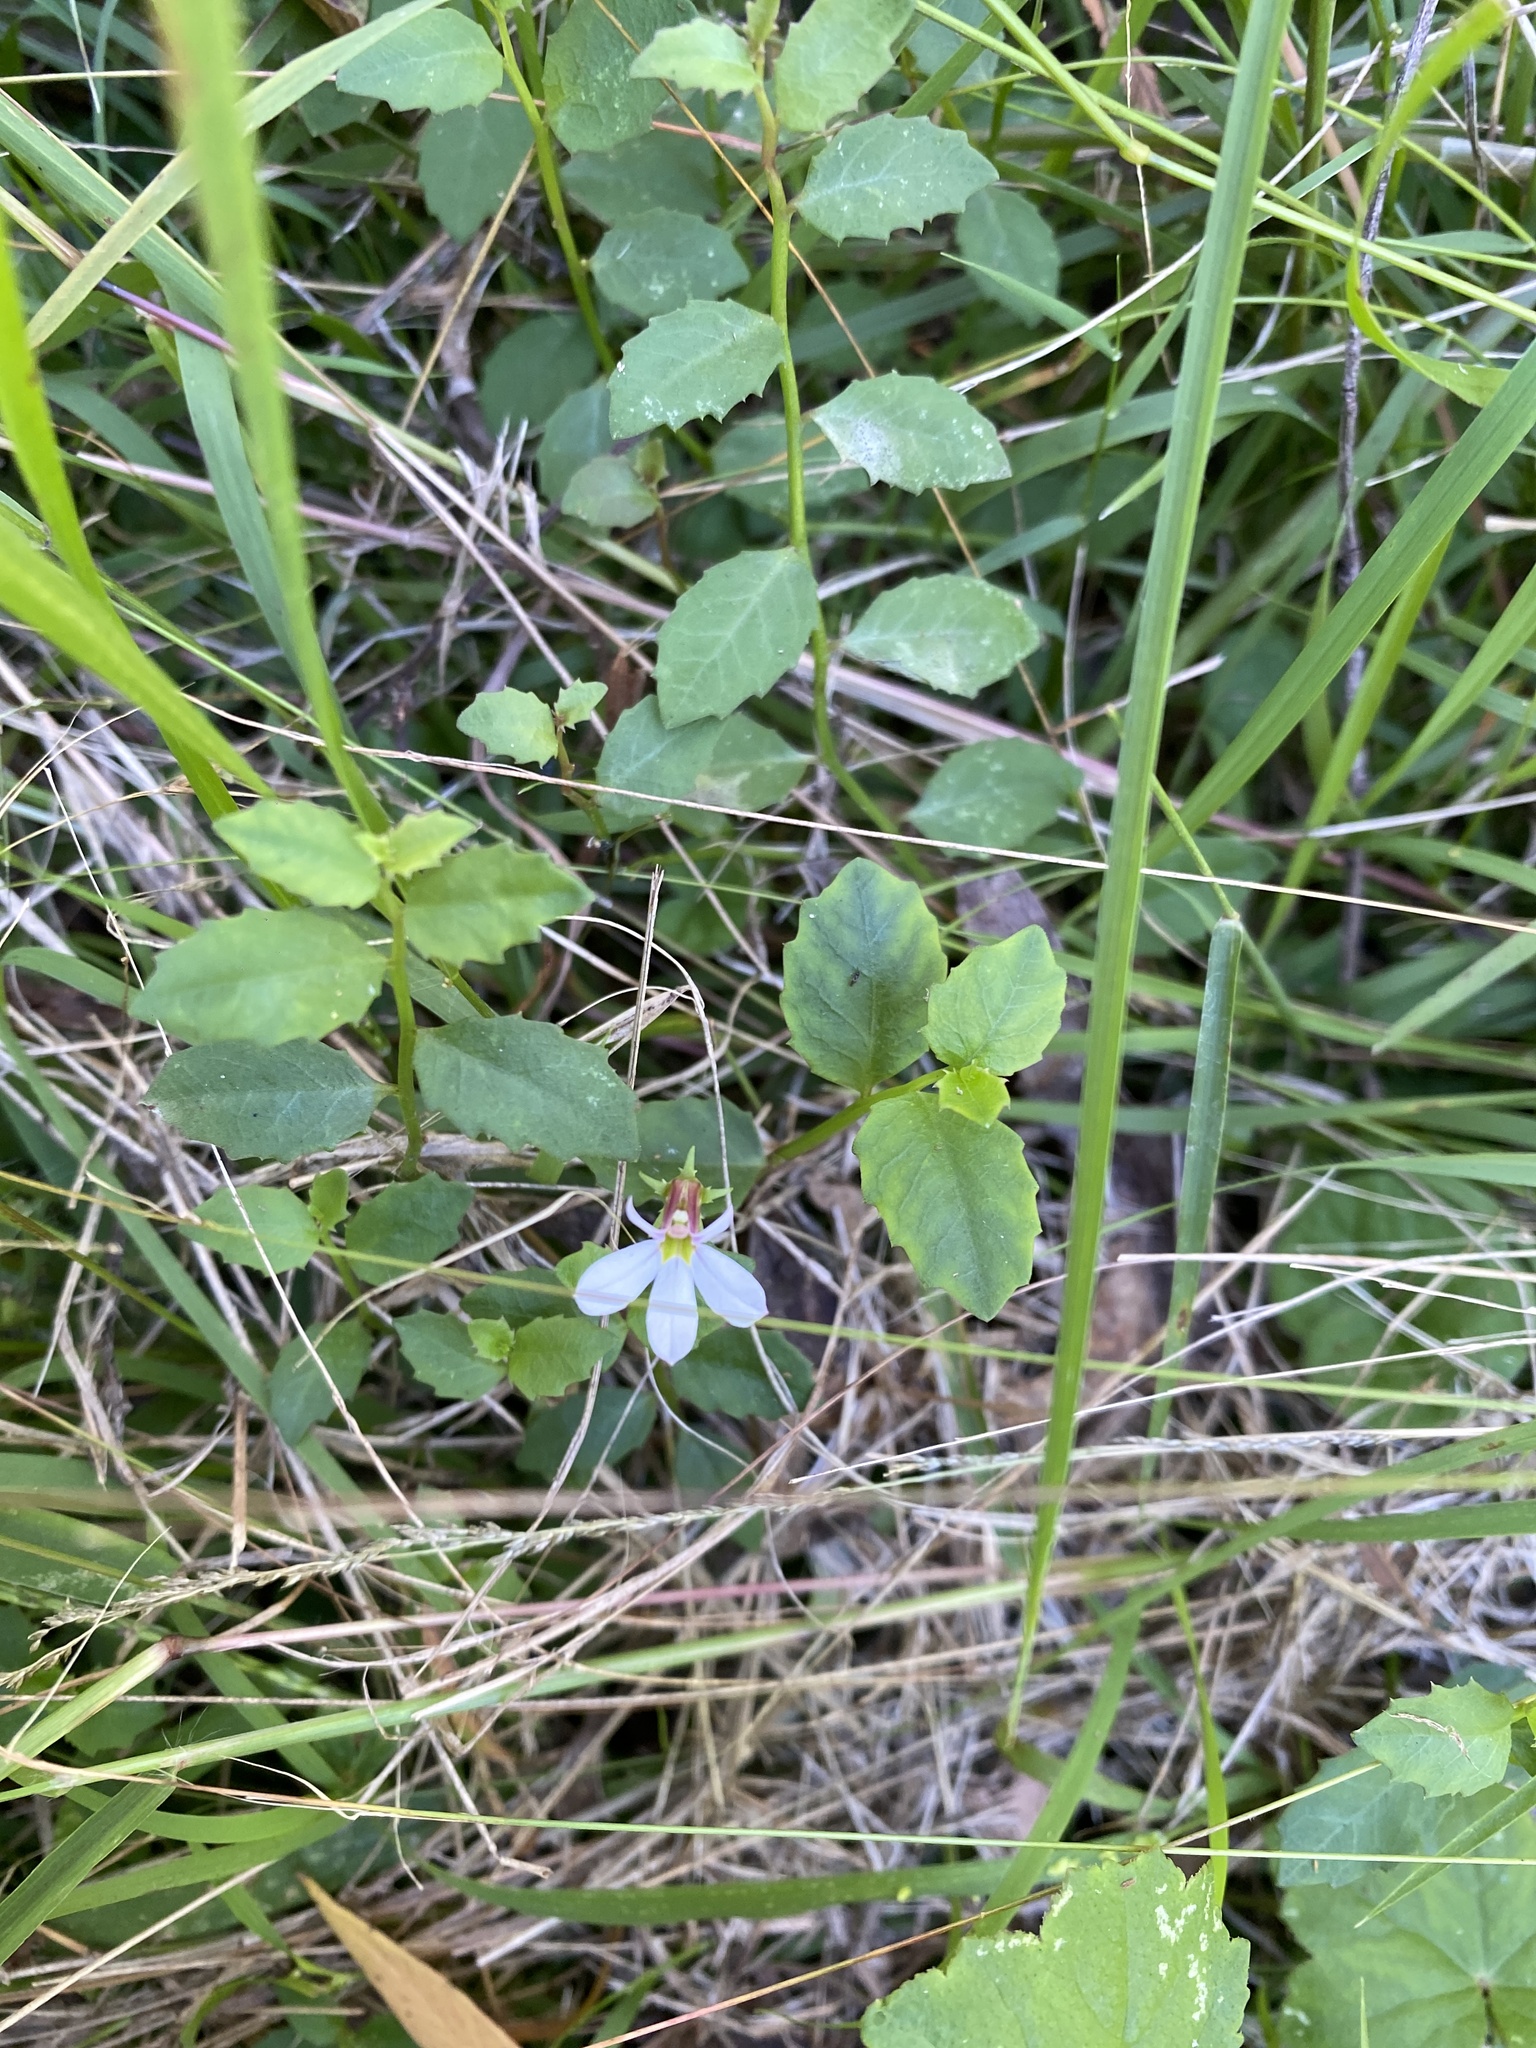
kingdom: Plantae
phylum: Tracheophyta
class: Magnoliopsida
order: Asterales
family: Campanulaceae
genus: Lobelia
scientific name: Lobelia purpurascens
